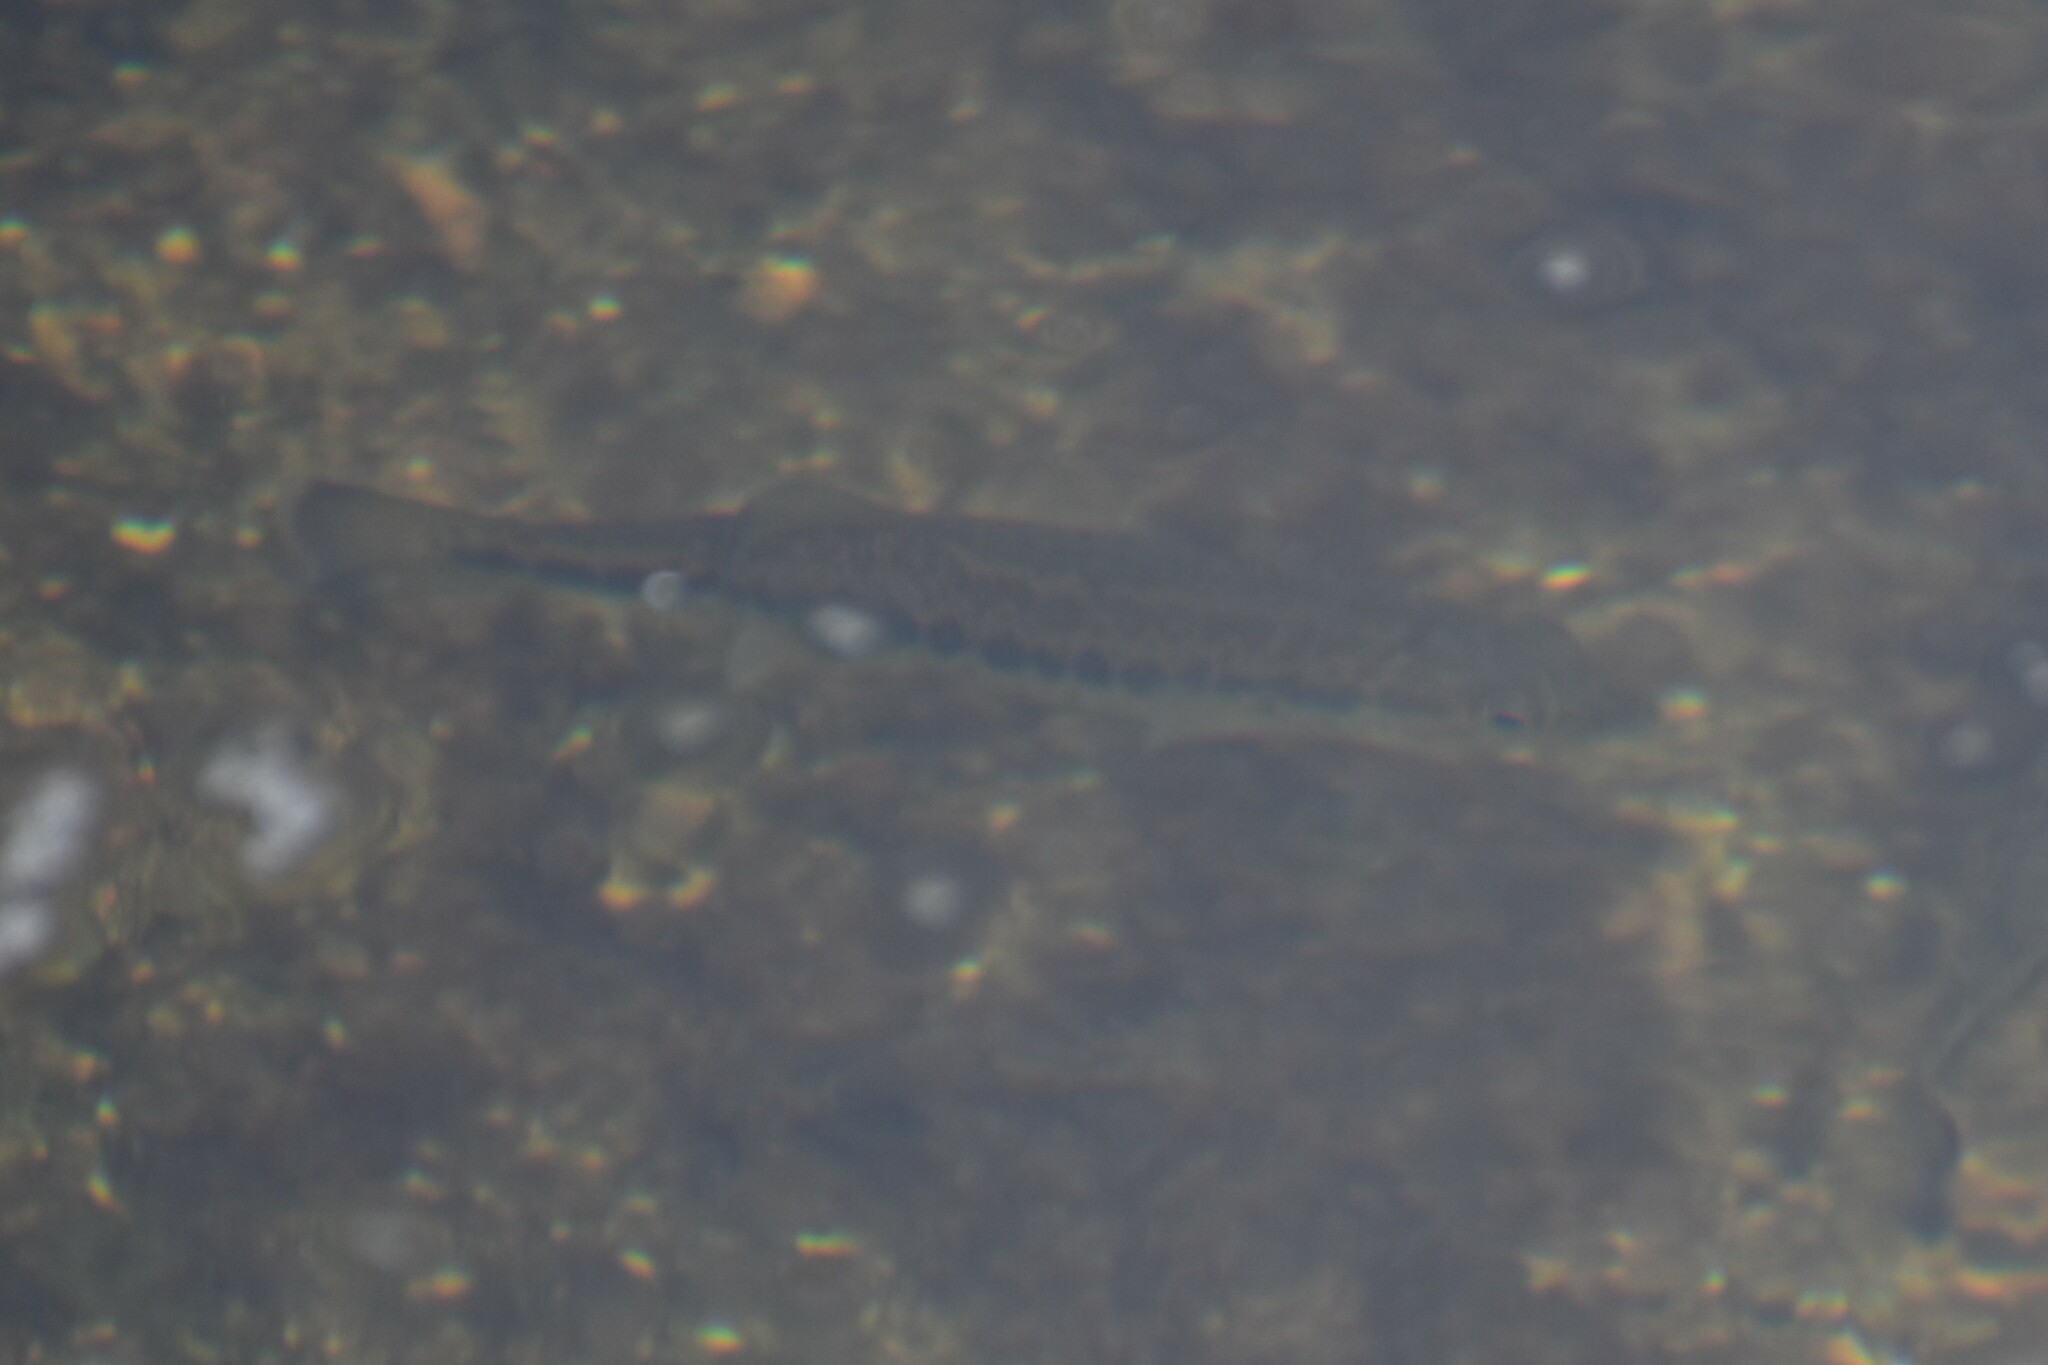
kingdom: Animalia
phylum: Chordata
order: Perciformes
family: Centrarchidae
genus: Micropterus
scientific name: Micropterus
